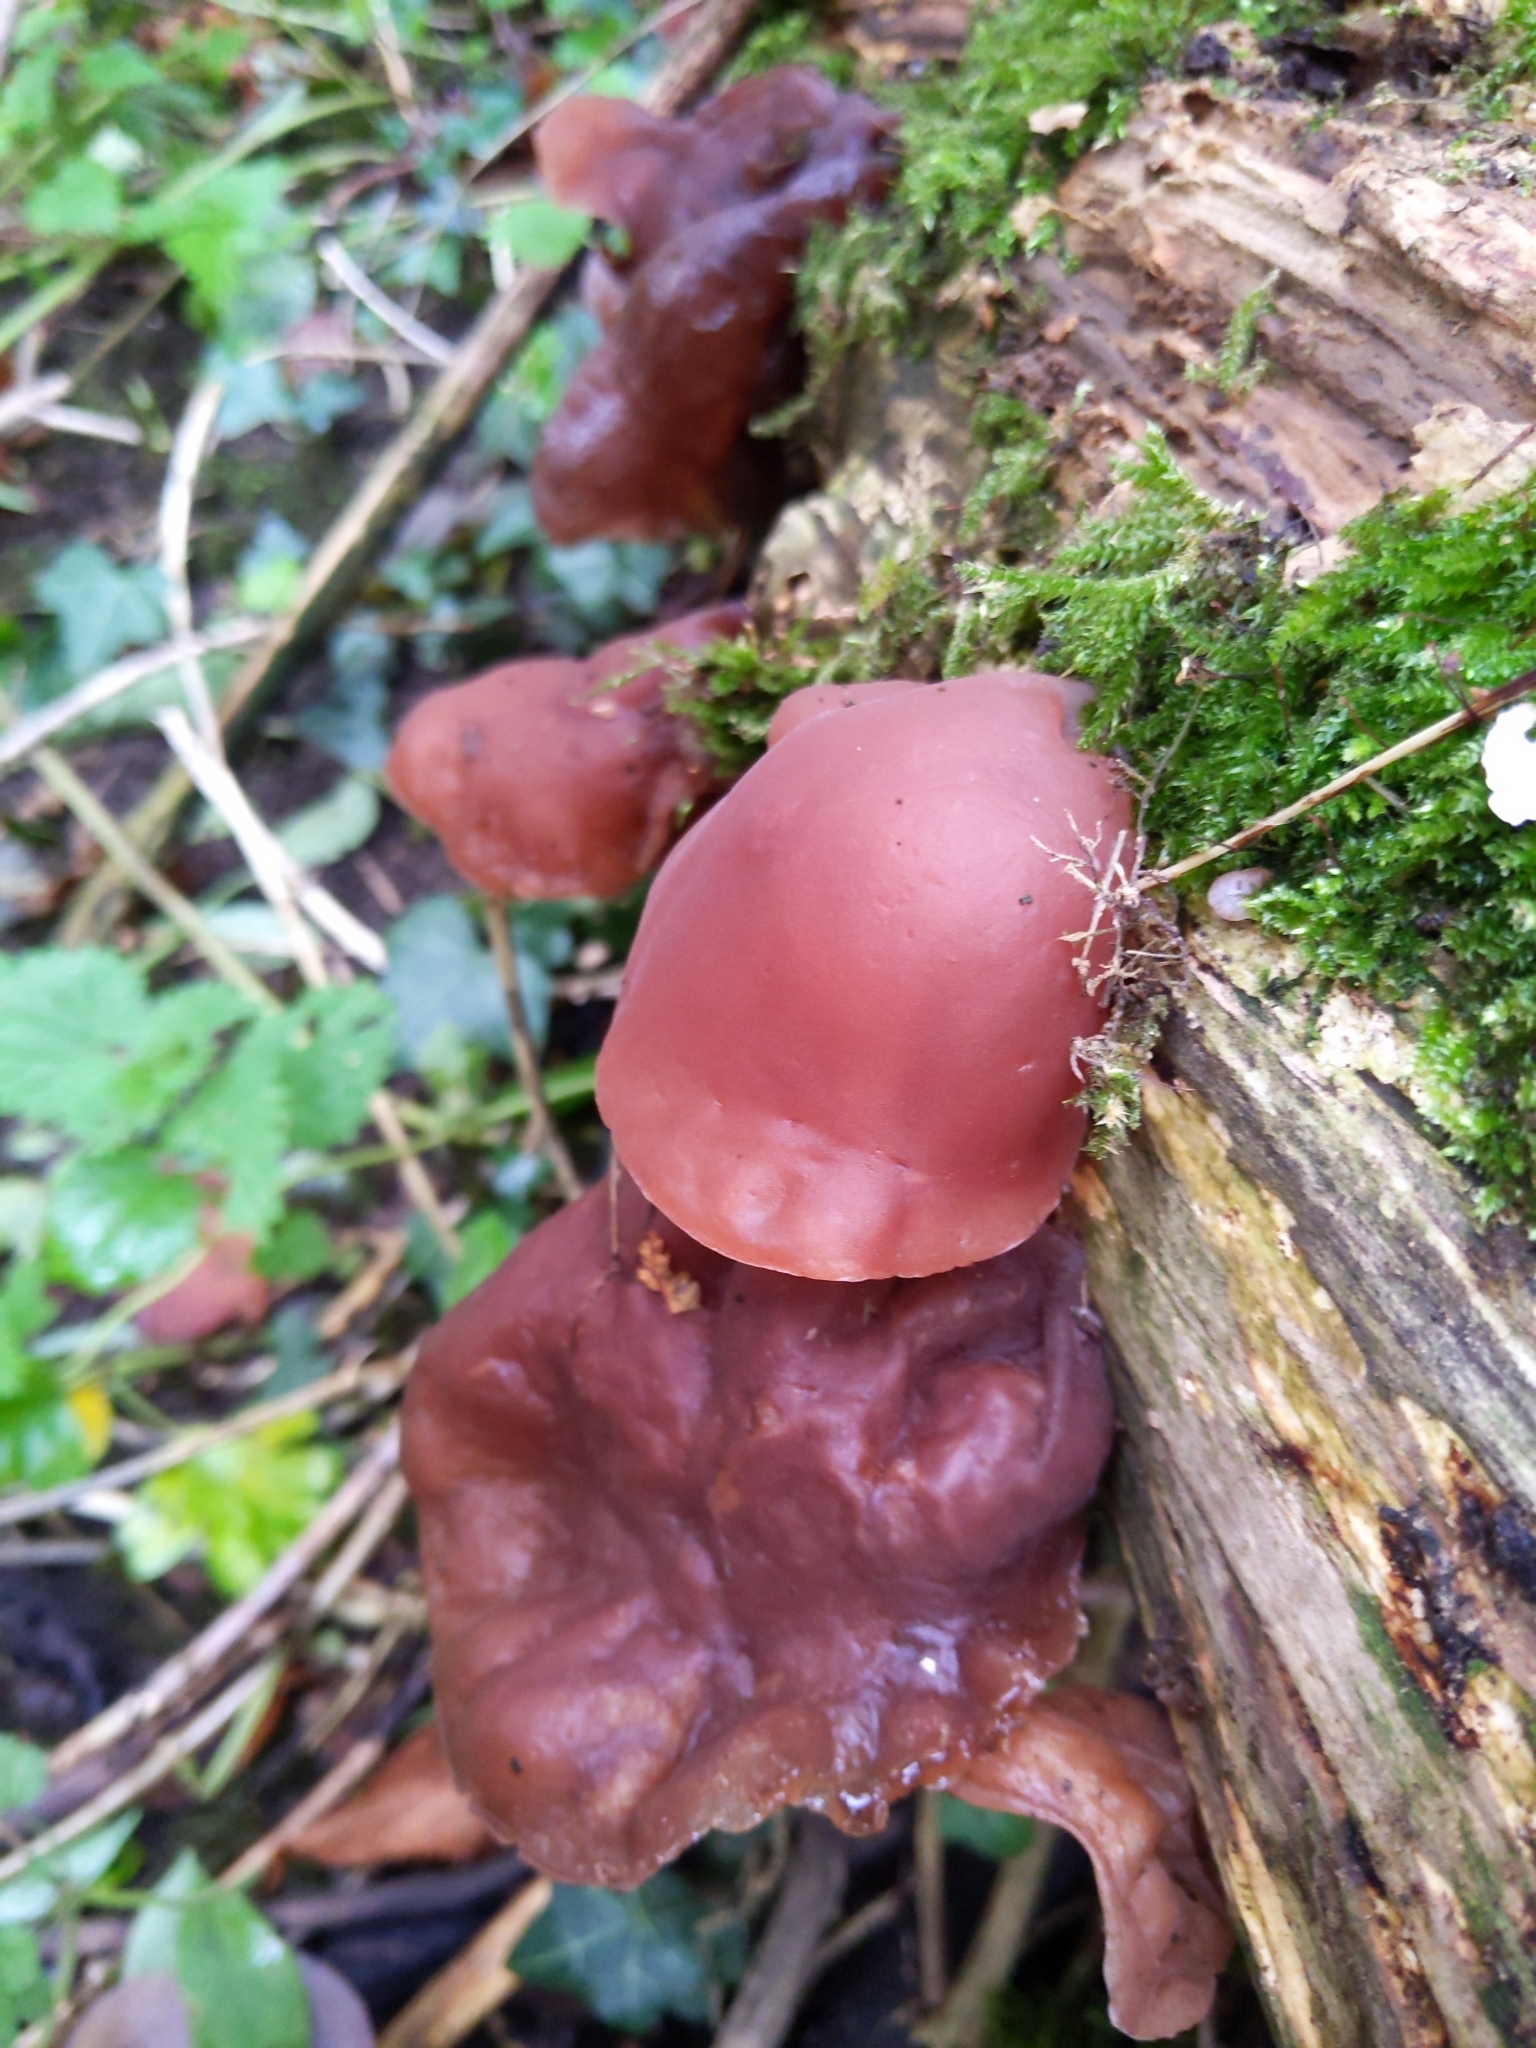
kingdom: Fungi
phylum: Basidiomycota
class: Agaricomycetes
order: Auriculariales
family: Auriculariaceae
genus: Auricularia
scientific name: Auricularia auricula-judae
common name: Jelly ear
